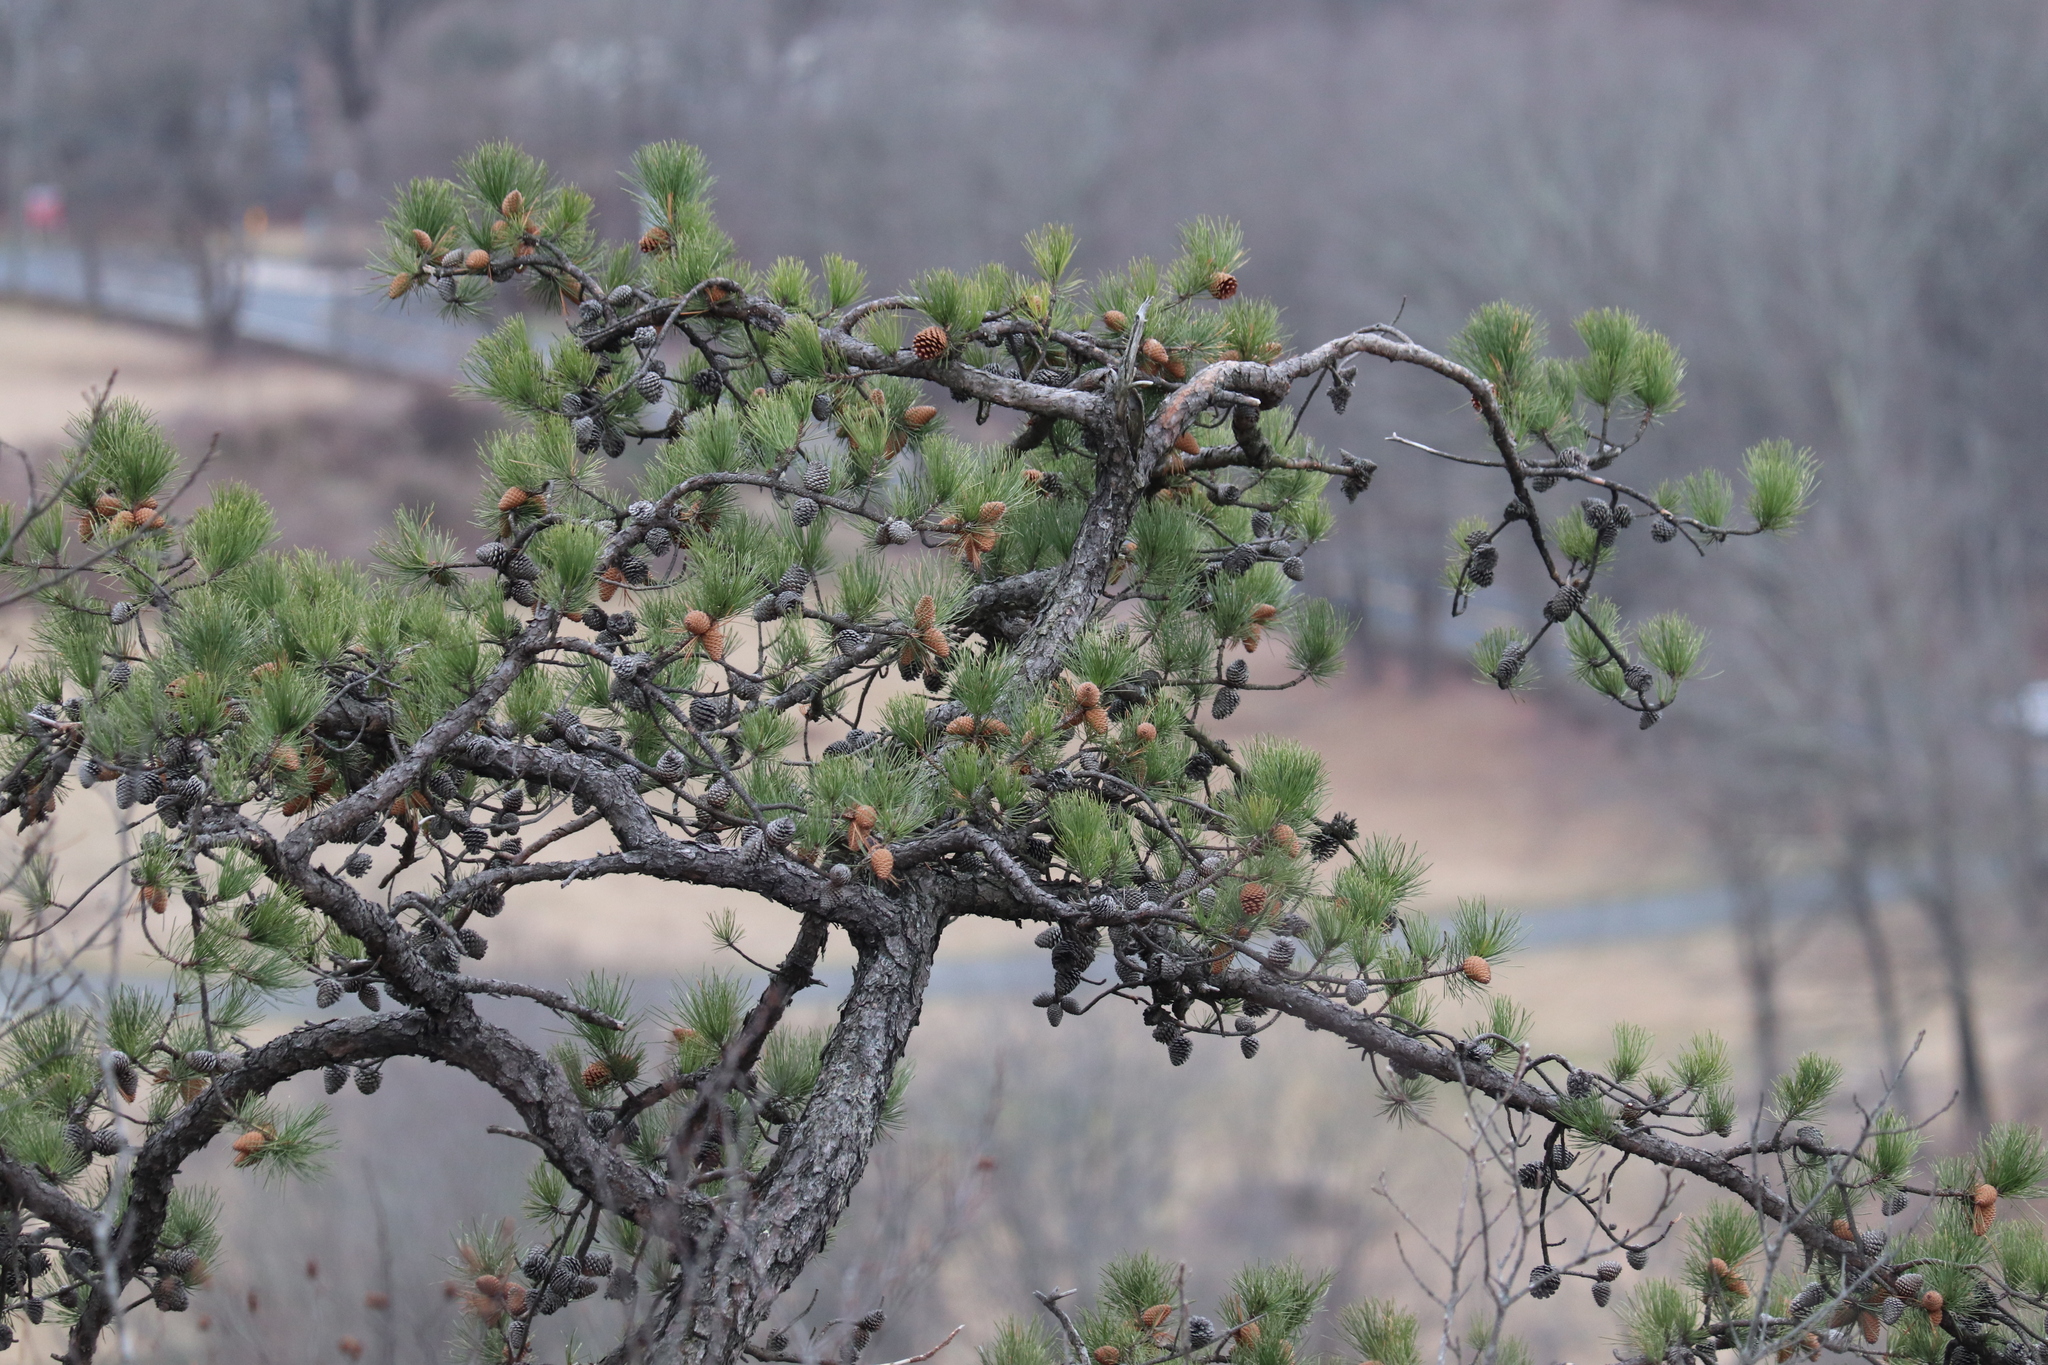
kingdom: Plantae
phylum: Tracheophyta
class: Pinopsida
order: Pinales
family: Pinaceae
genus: Pinus
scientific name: Pinus rigida
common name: Pitch pine
